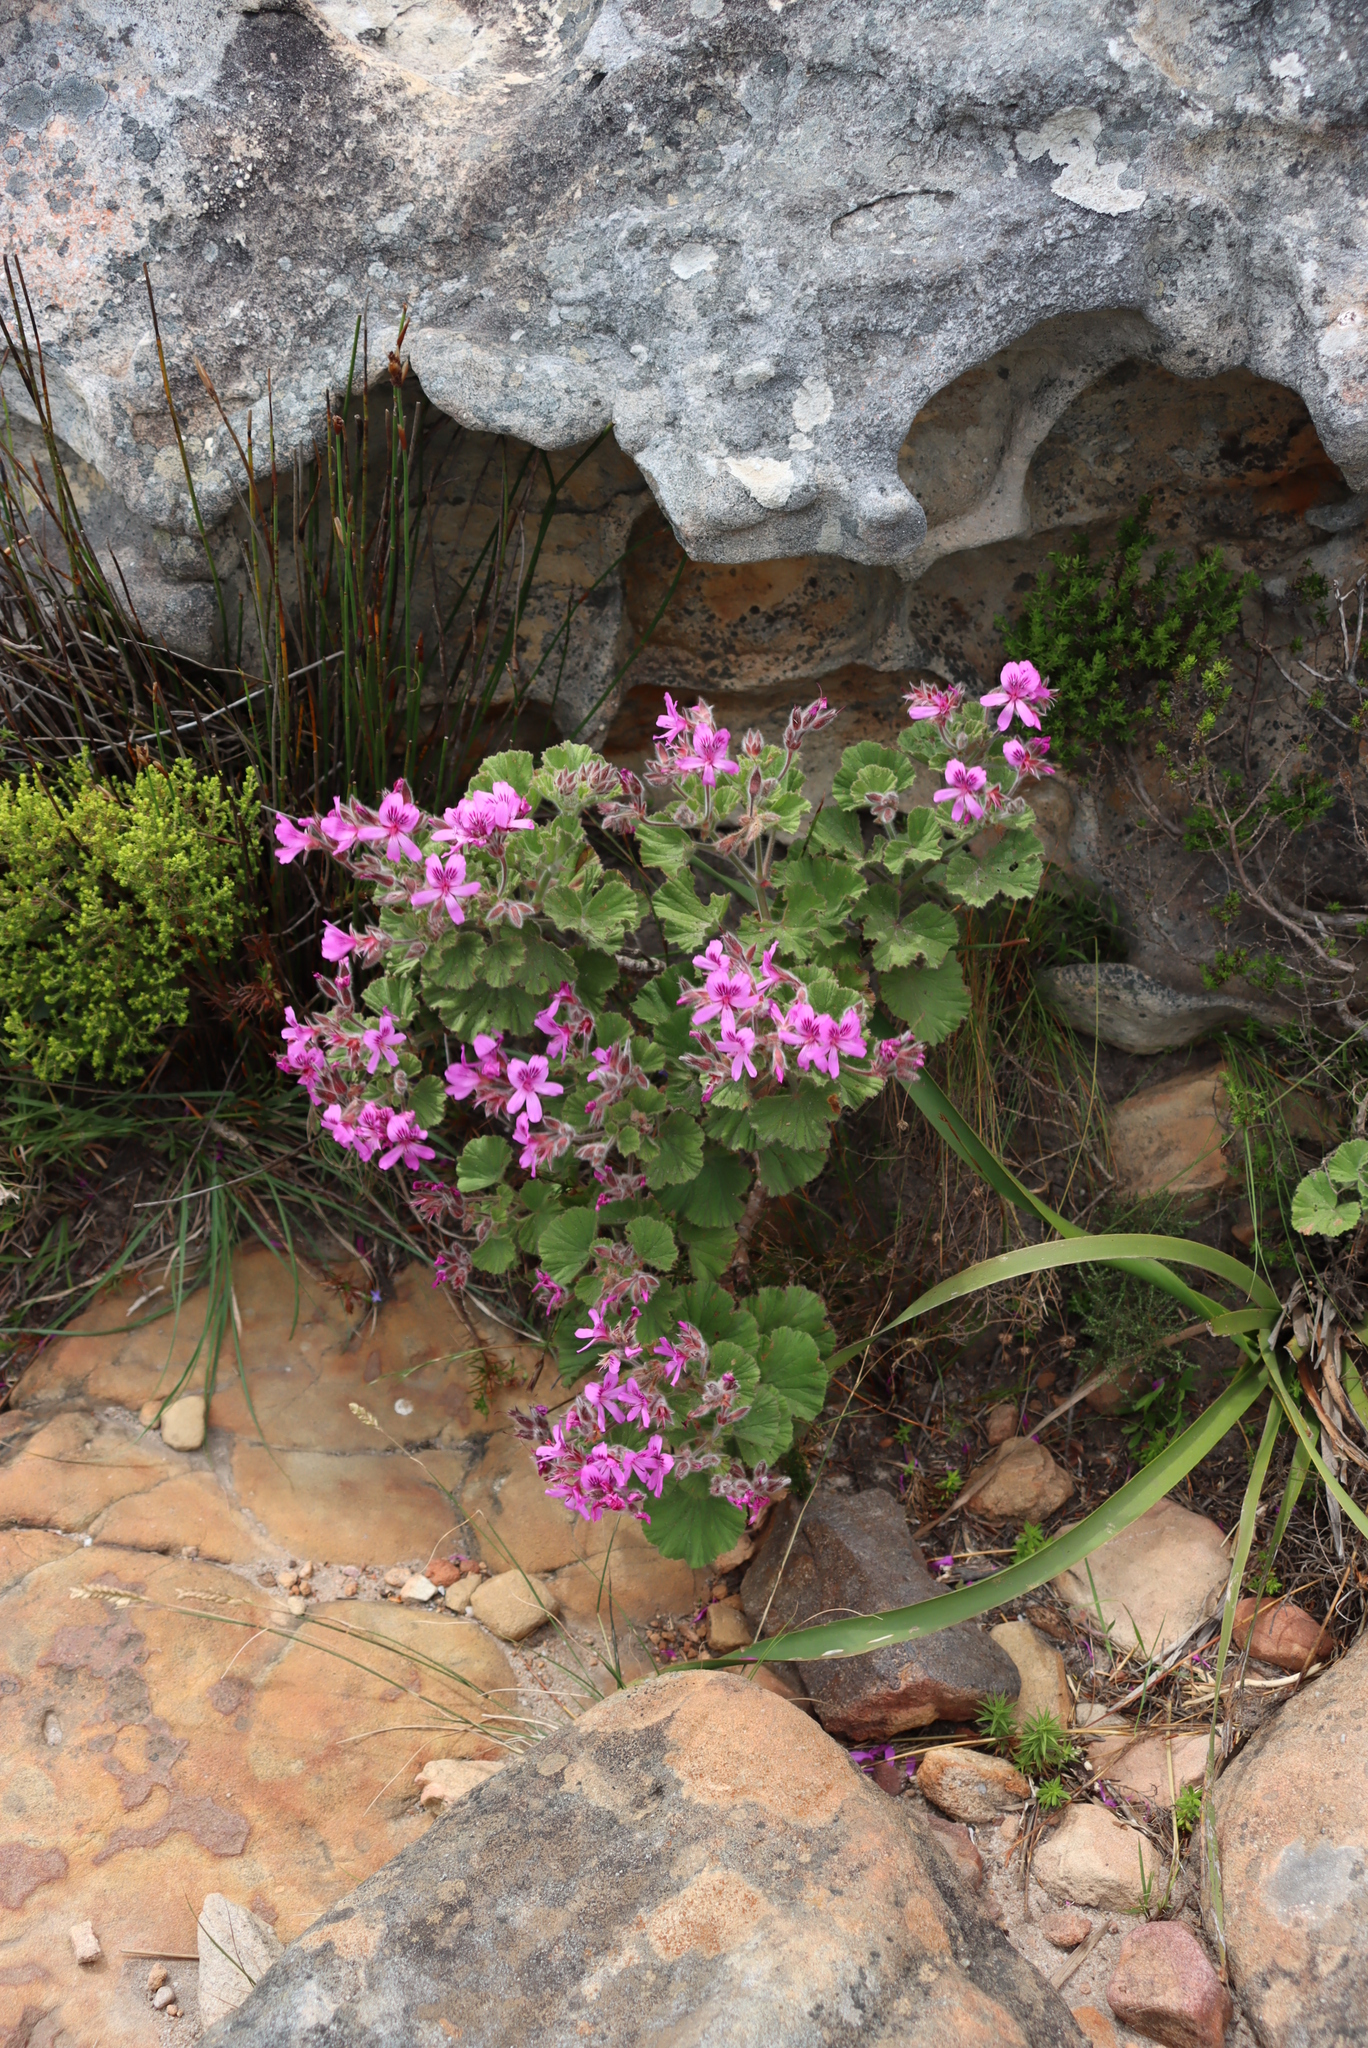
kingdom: Plantae
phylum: Tracheophyta
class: Magnoliopsida
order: Geraniales
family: Geraniaceae
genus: Pelargonium
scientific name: Pelargonium cucullatum
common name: Tree pelargonium
